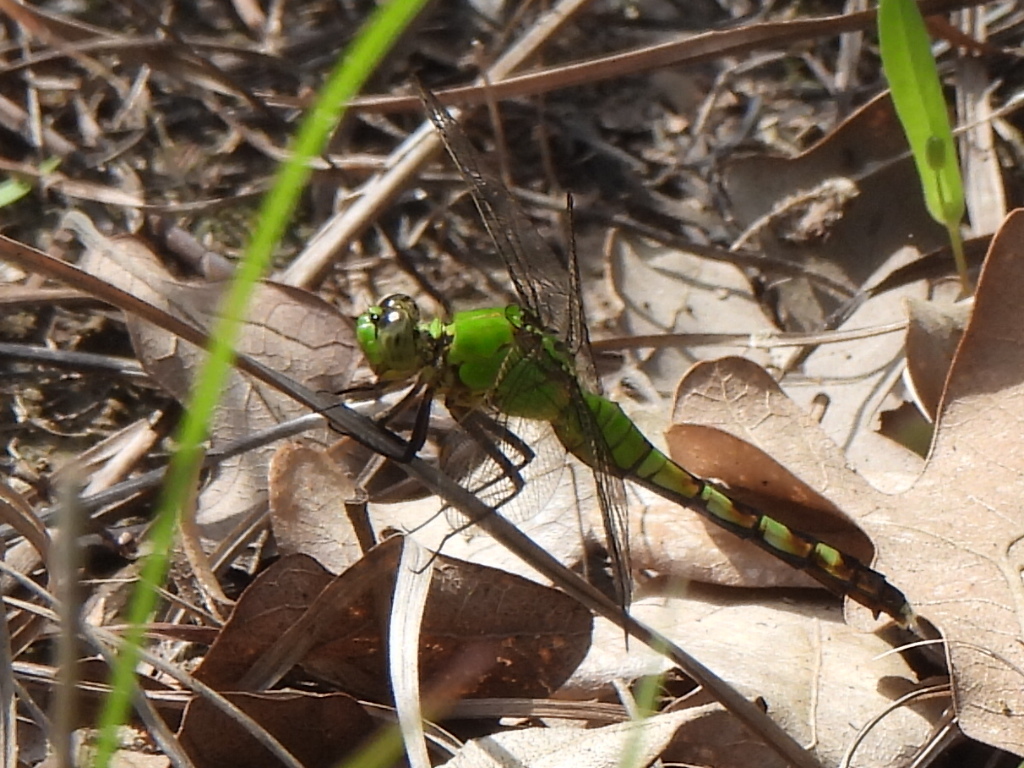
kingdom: Animalia
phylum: Arthropoda
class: Insecta
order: Odonata
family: Libellulidae
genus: Erythemis
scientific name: Erythemis simplicicollis
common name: Eastern pondhawk
